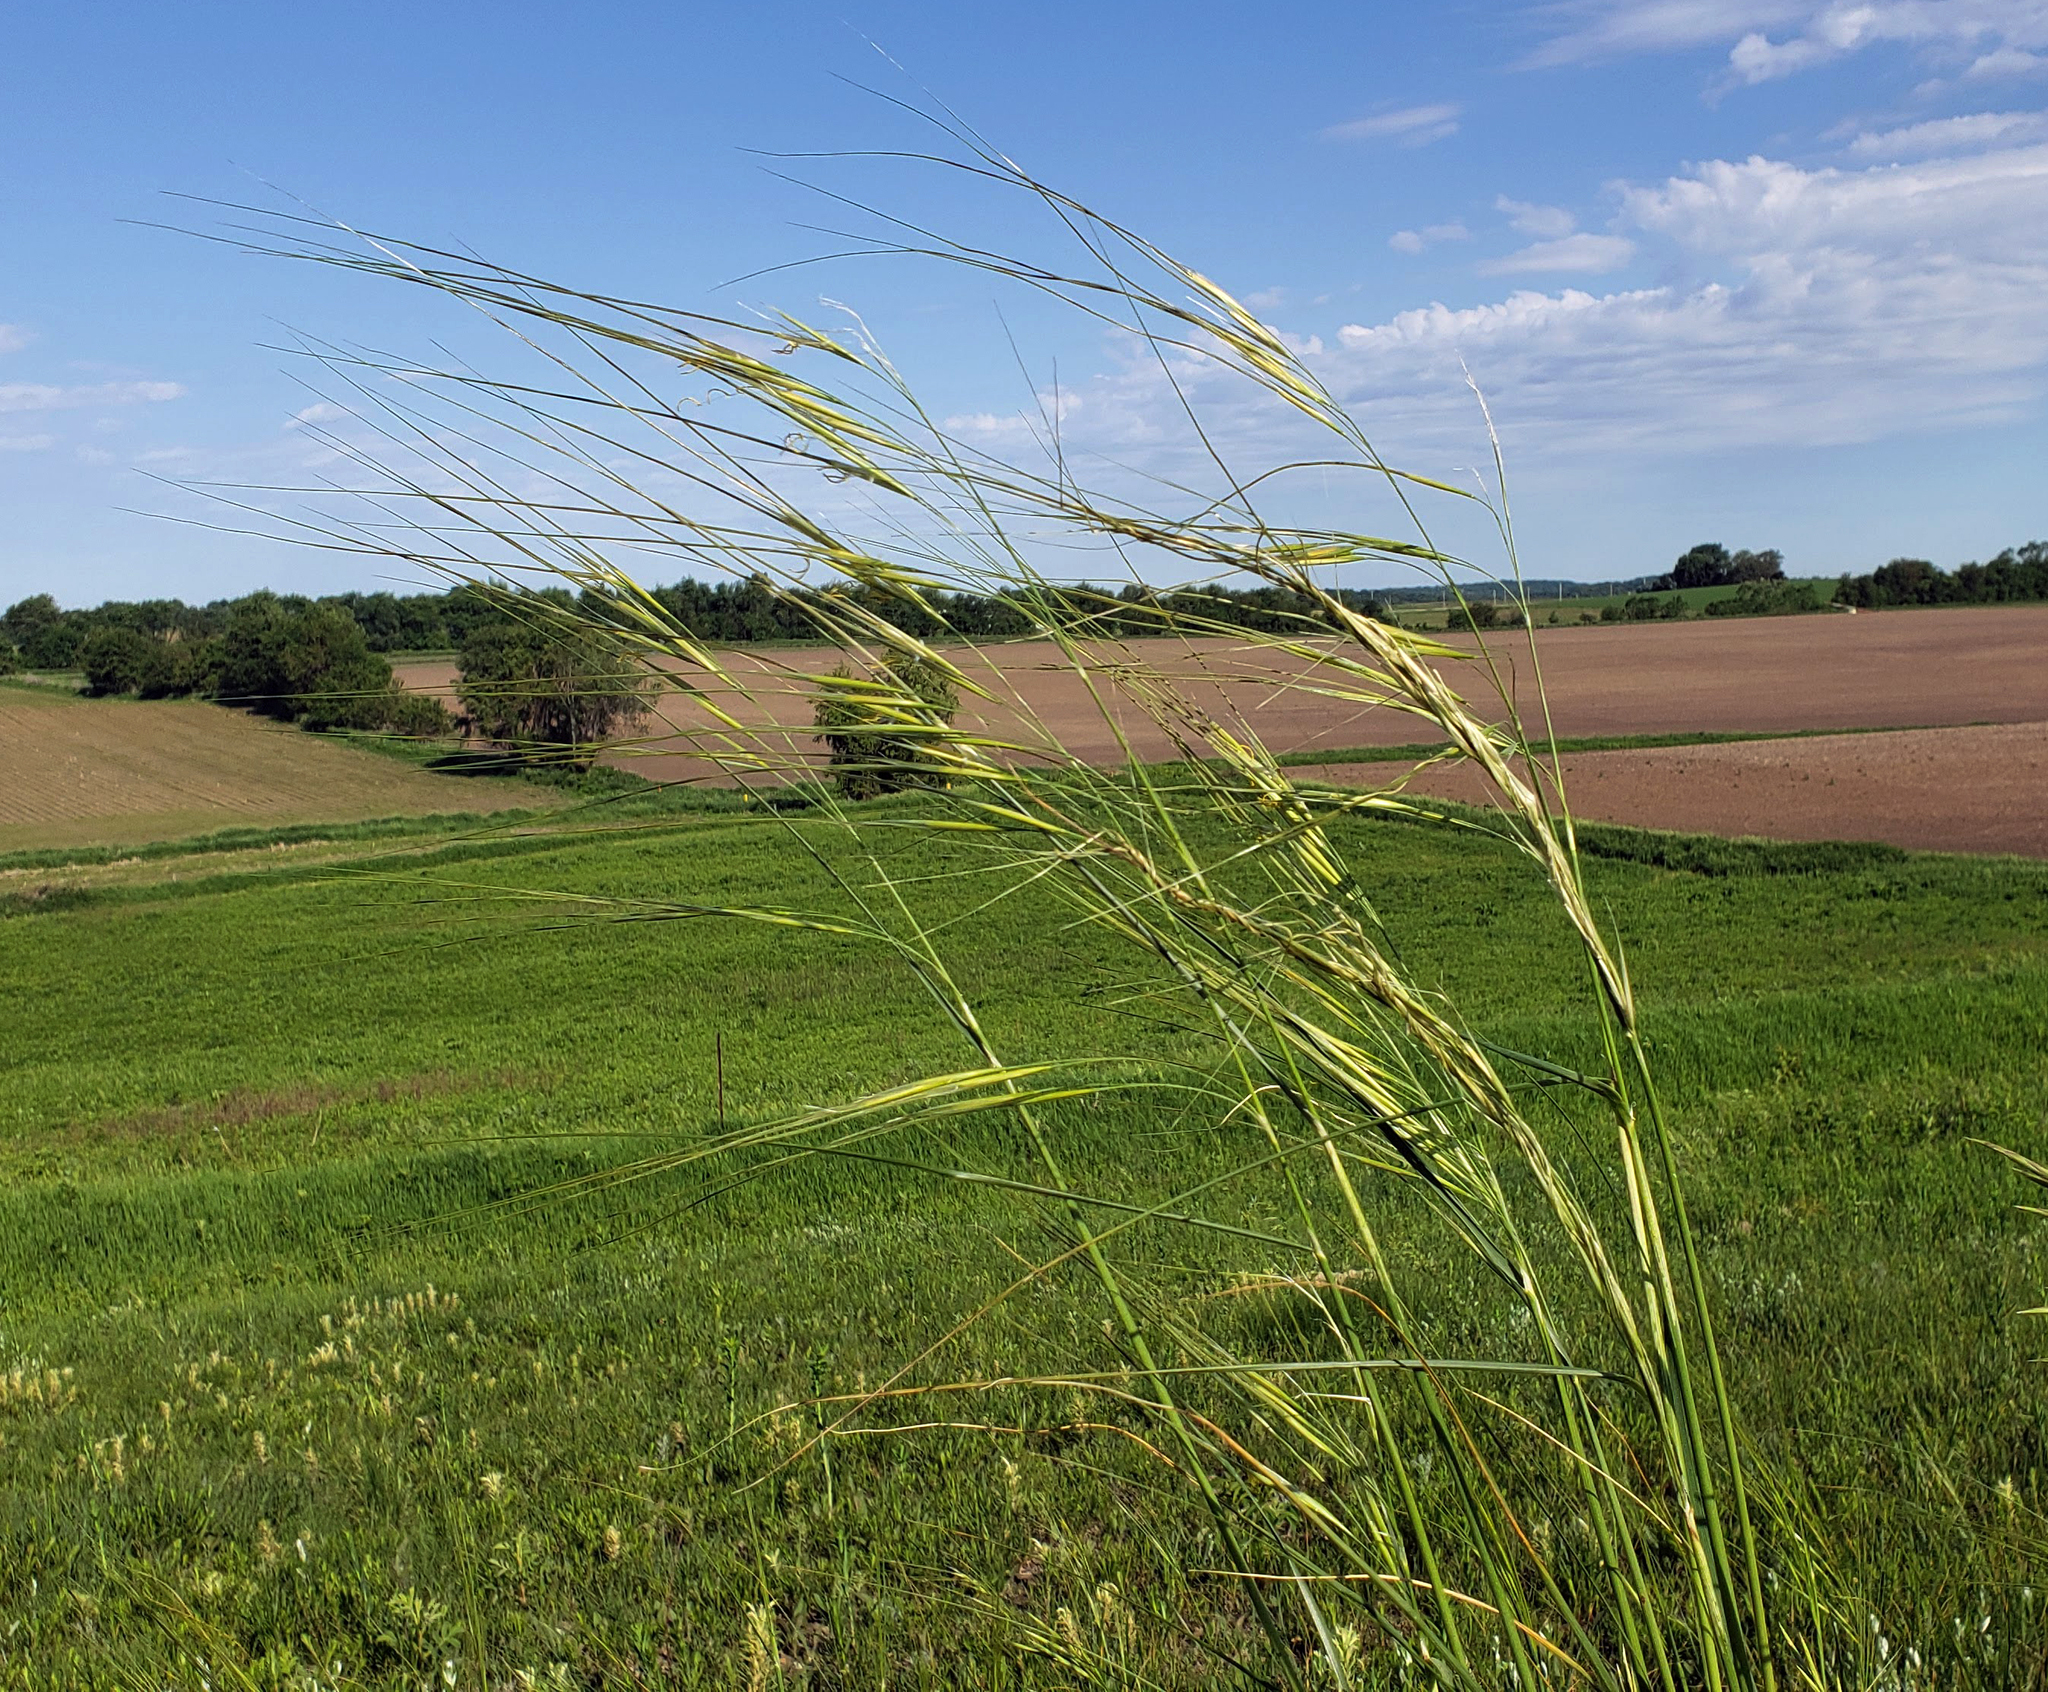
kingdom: Plantae
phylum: Tracheophyta
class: Liliopsida
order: Poales
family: Poaceae
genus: Hesperostipa
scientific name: Hesperostipa spartea
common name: Porcupine grass
